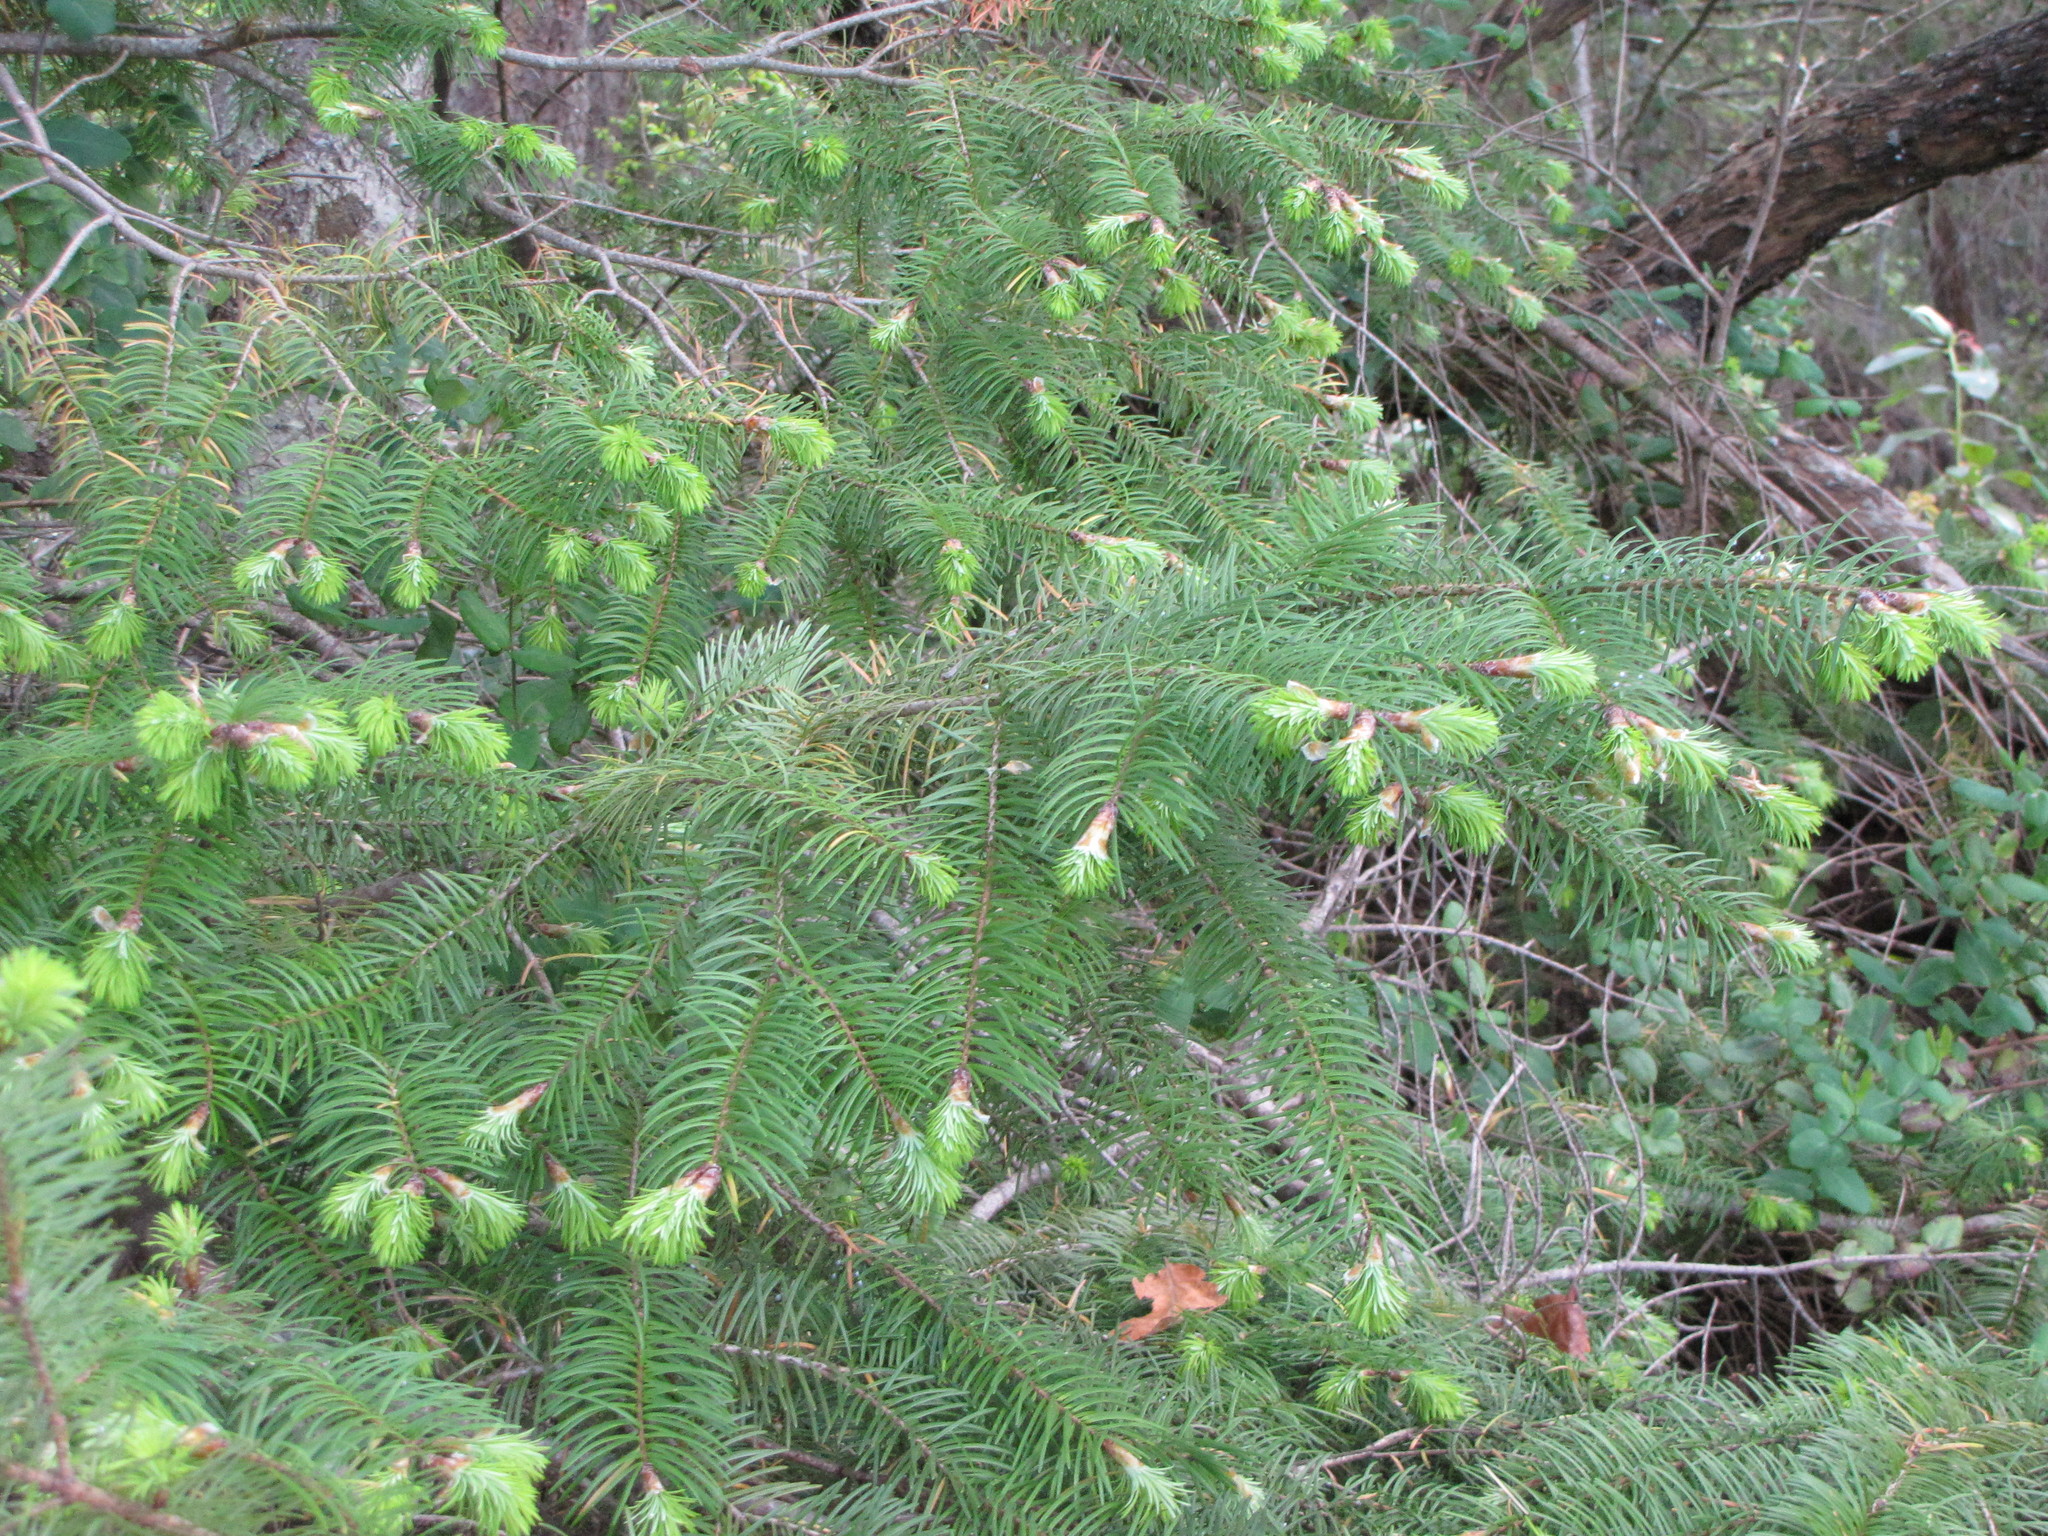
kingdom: Plantae
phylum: Tracheophyta
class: Pinopsida
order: Pinales
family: Pinaceae
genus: Pseudotsuga
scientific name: Pseudotsuga menziesii
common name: Douglas fir
